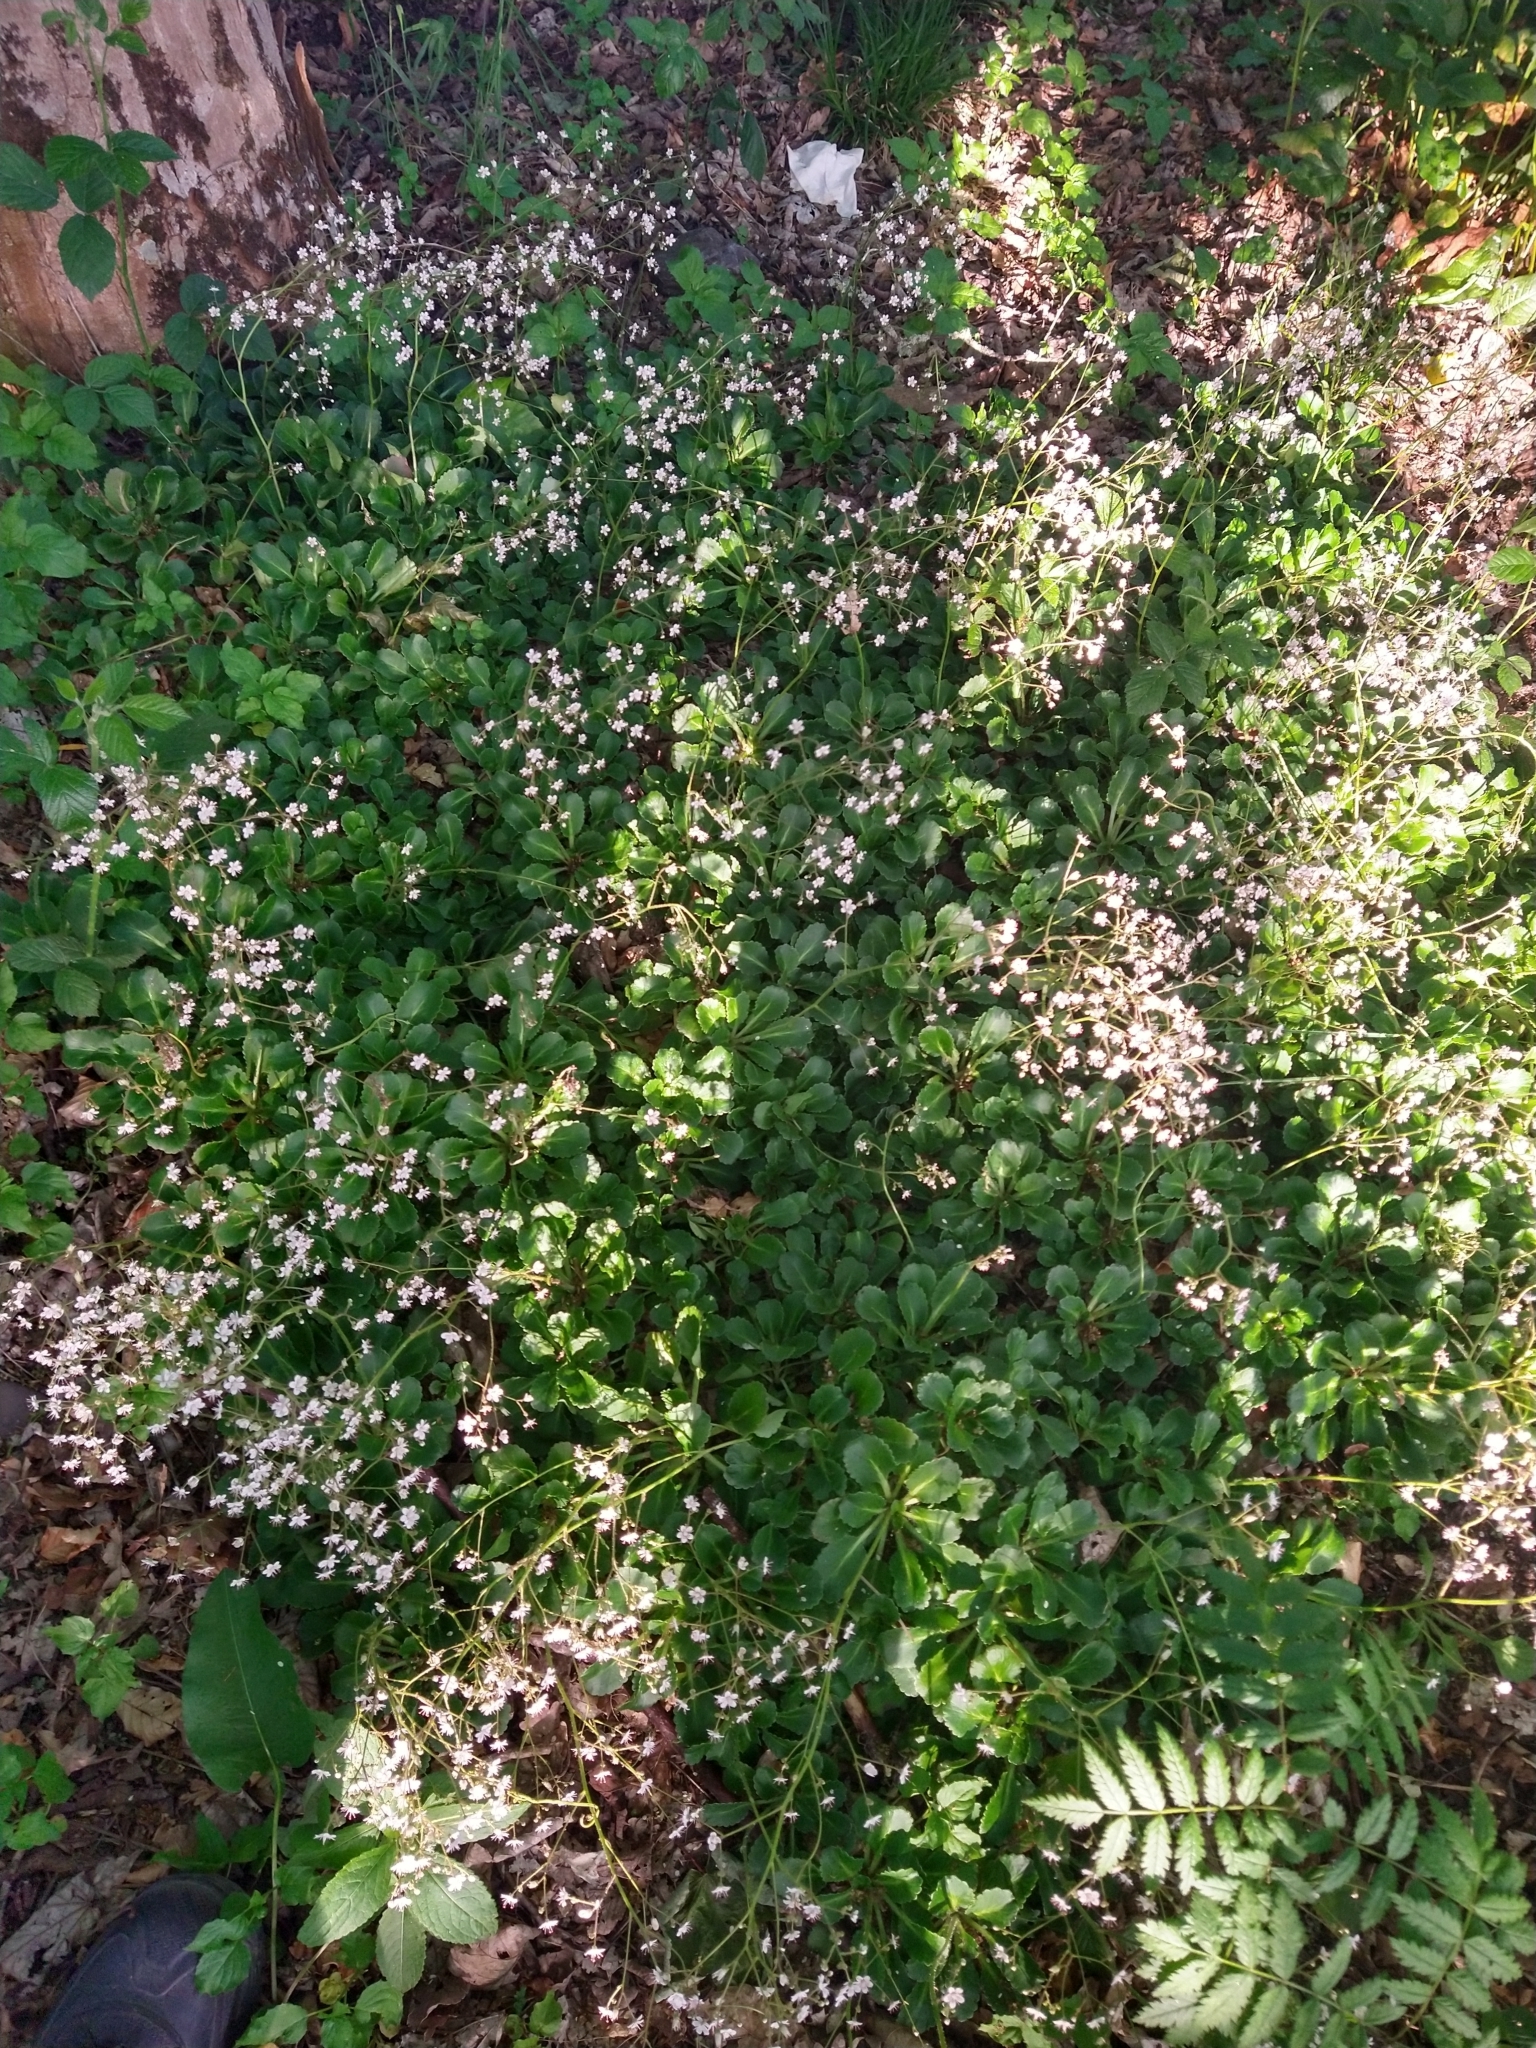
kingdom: Plantae
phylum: Tracheophyta
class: Magnoliopsida
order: Saxifragales
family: Saxifragaceae
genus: Saxifraga
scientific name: Saxifraga urbium
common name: Londonpride
